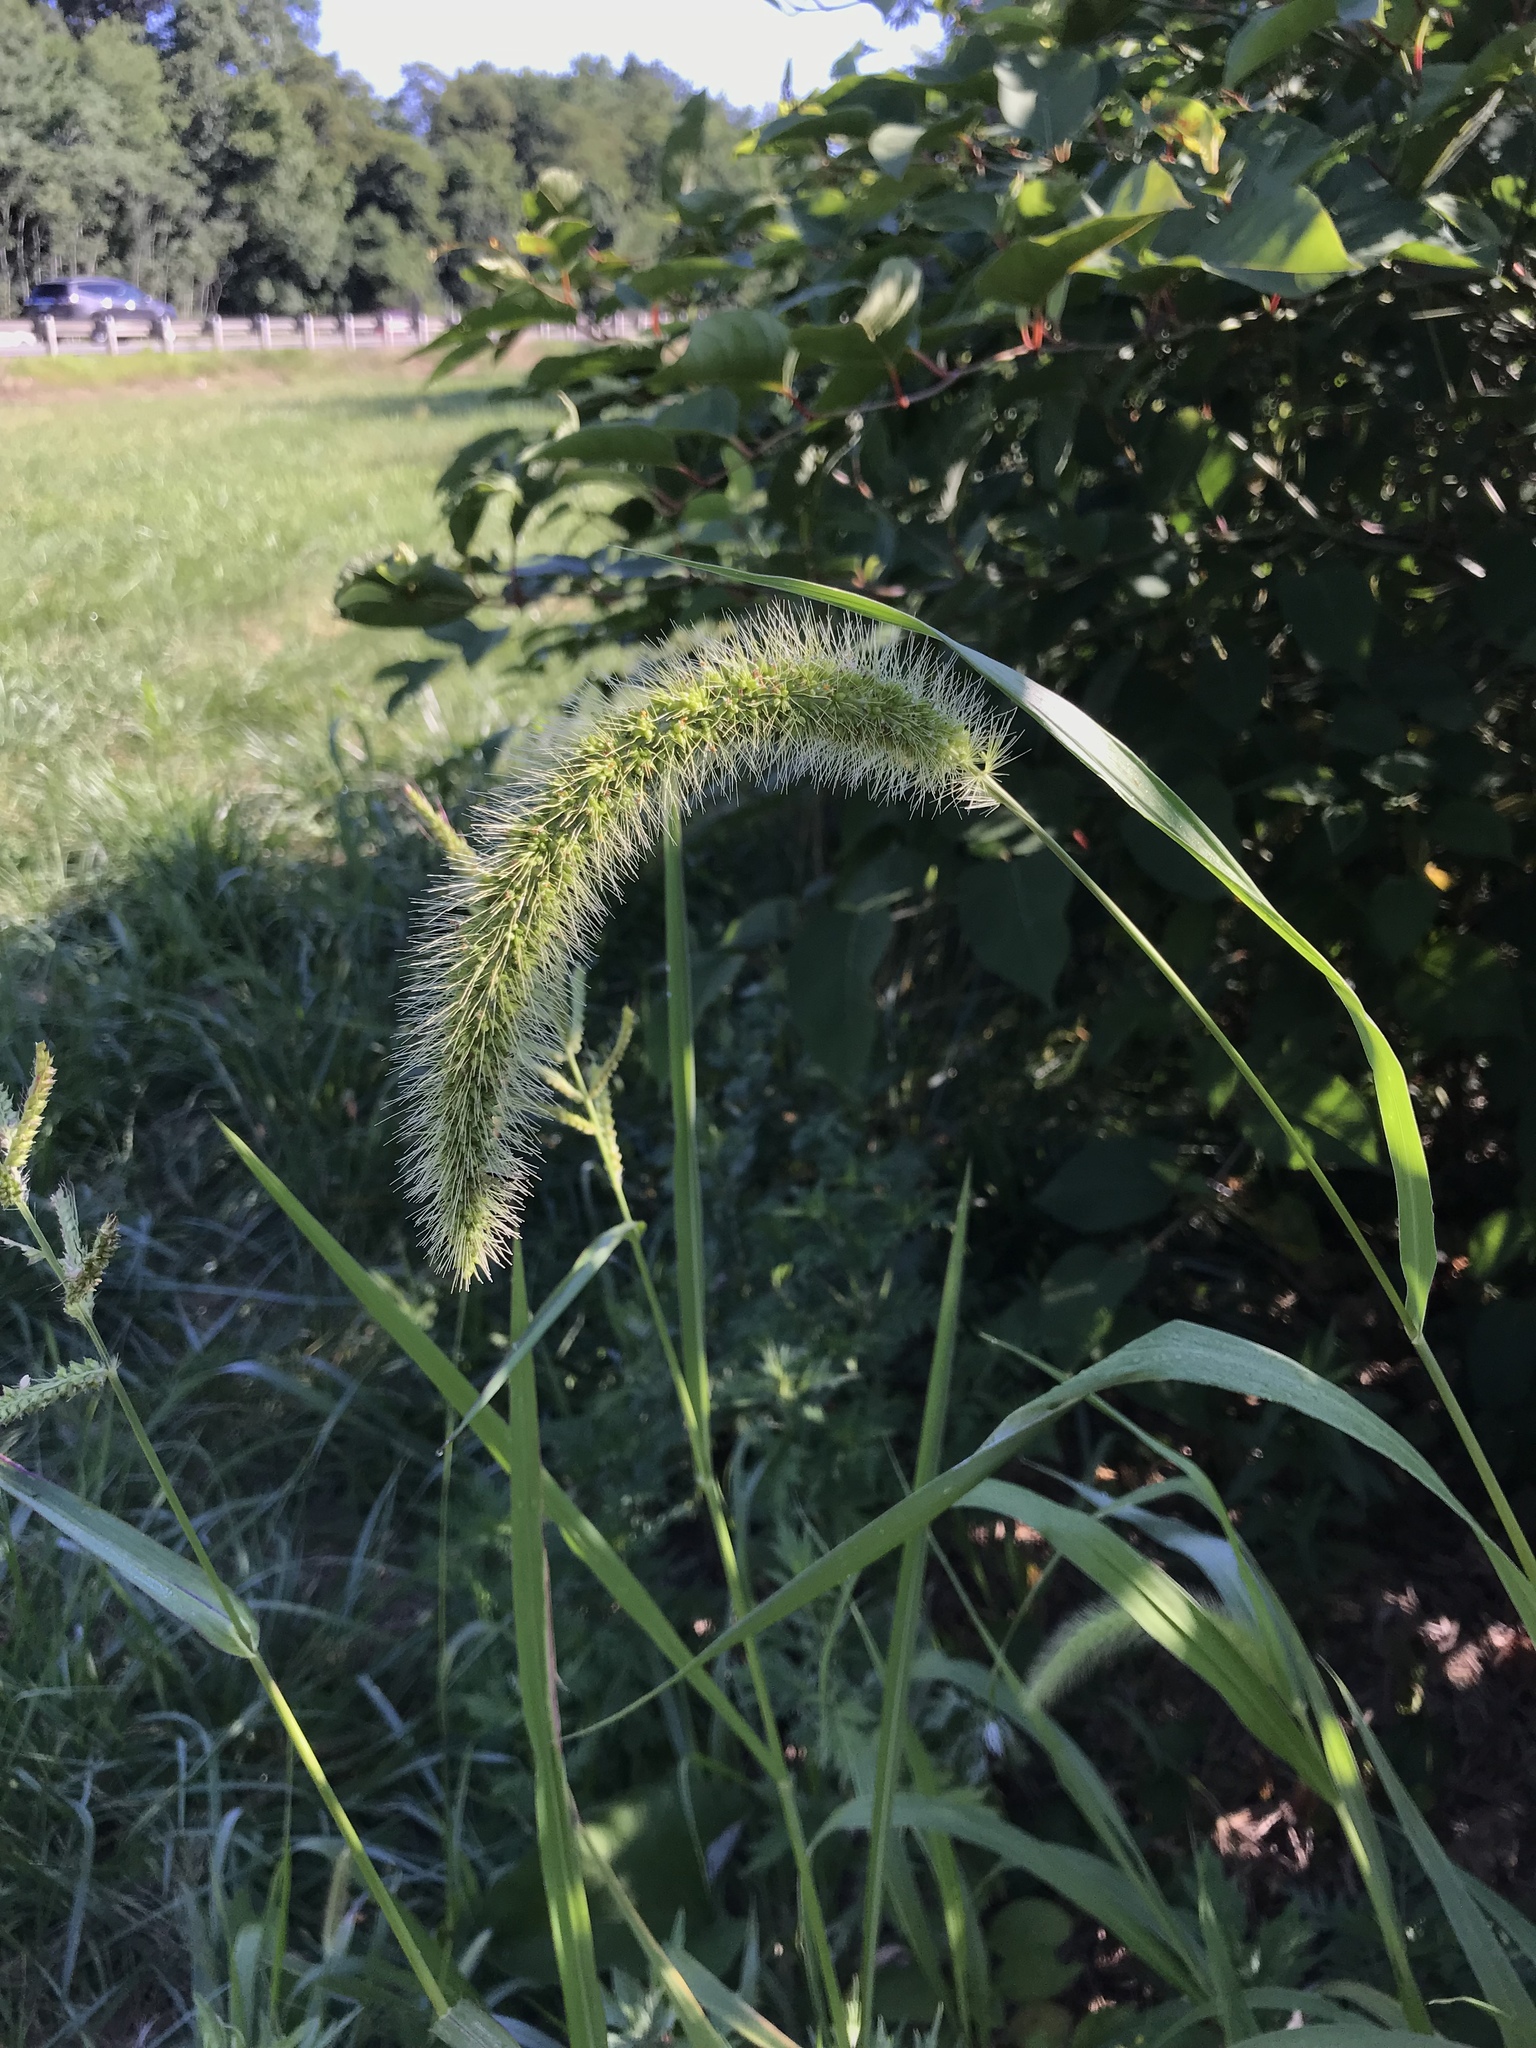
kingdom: Plantae
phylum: Tracheophyta
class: Liliopsida
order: Poales
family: Poaceae
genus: Setaria
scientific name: Setaria faberi
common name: Nodding bristle-grass
